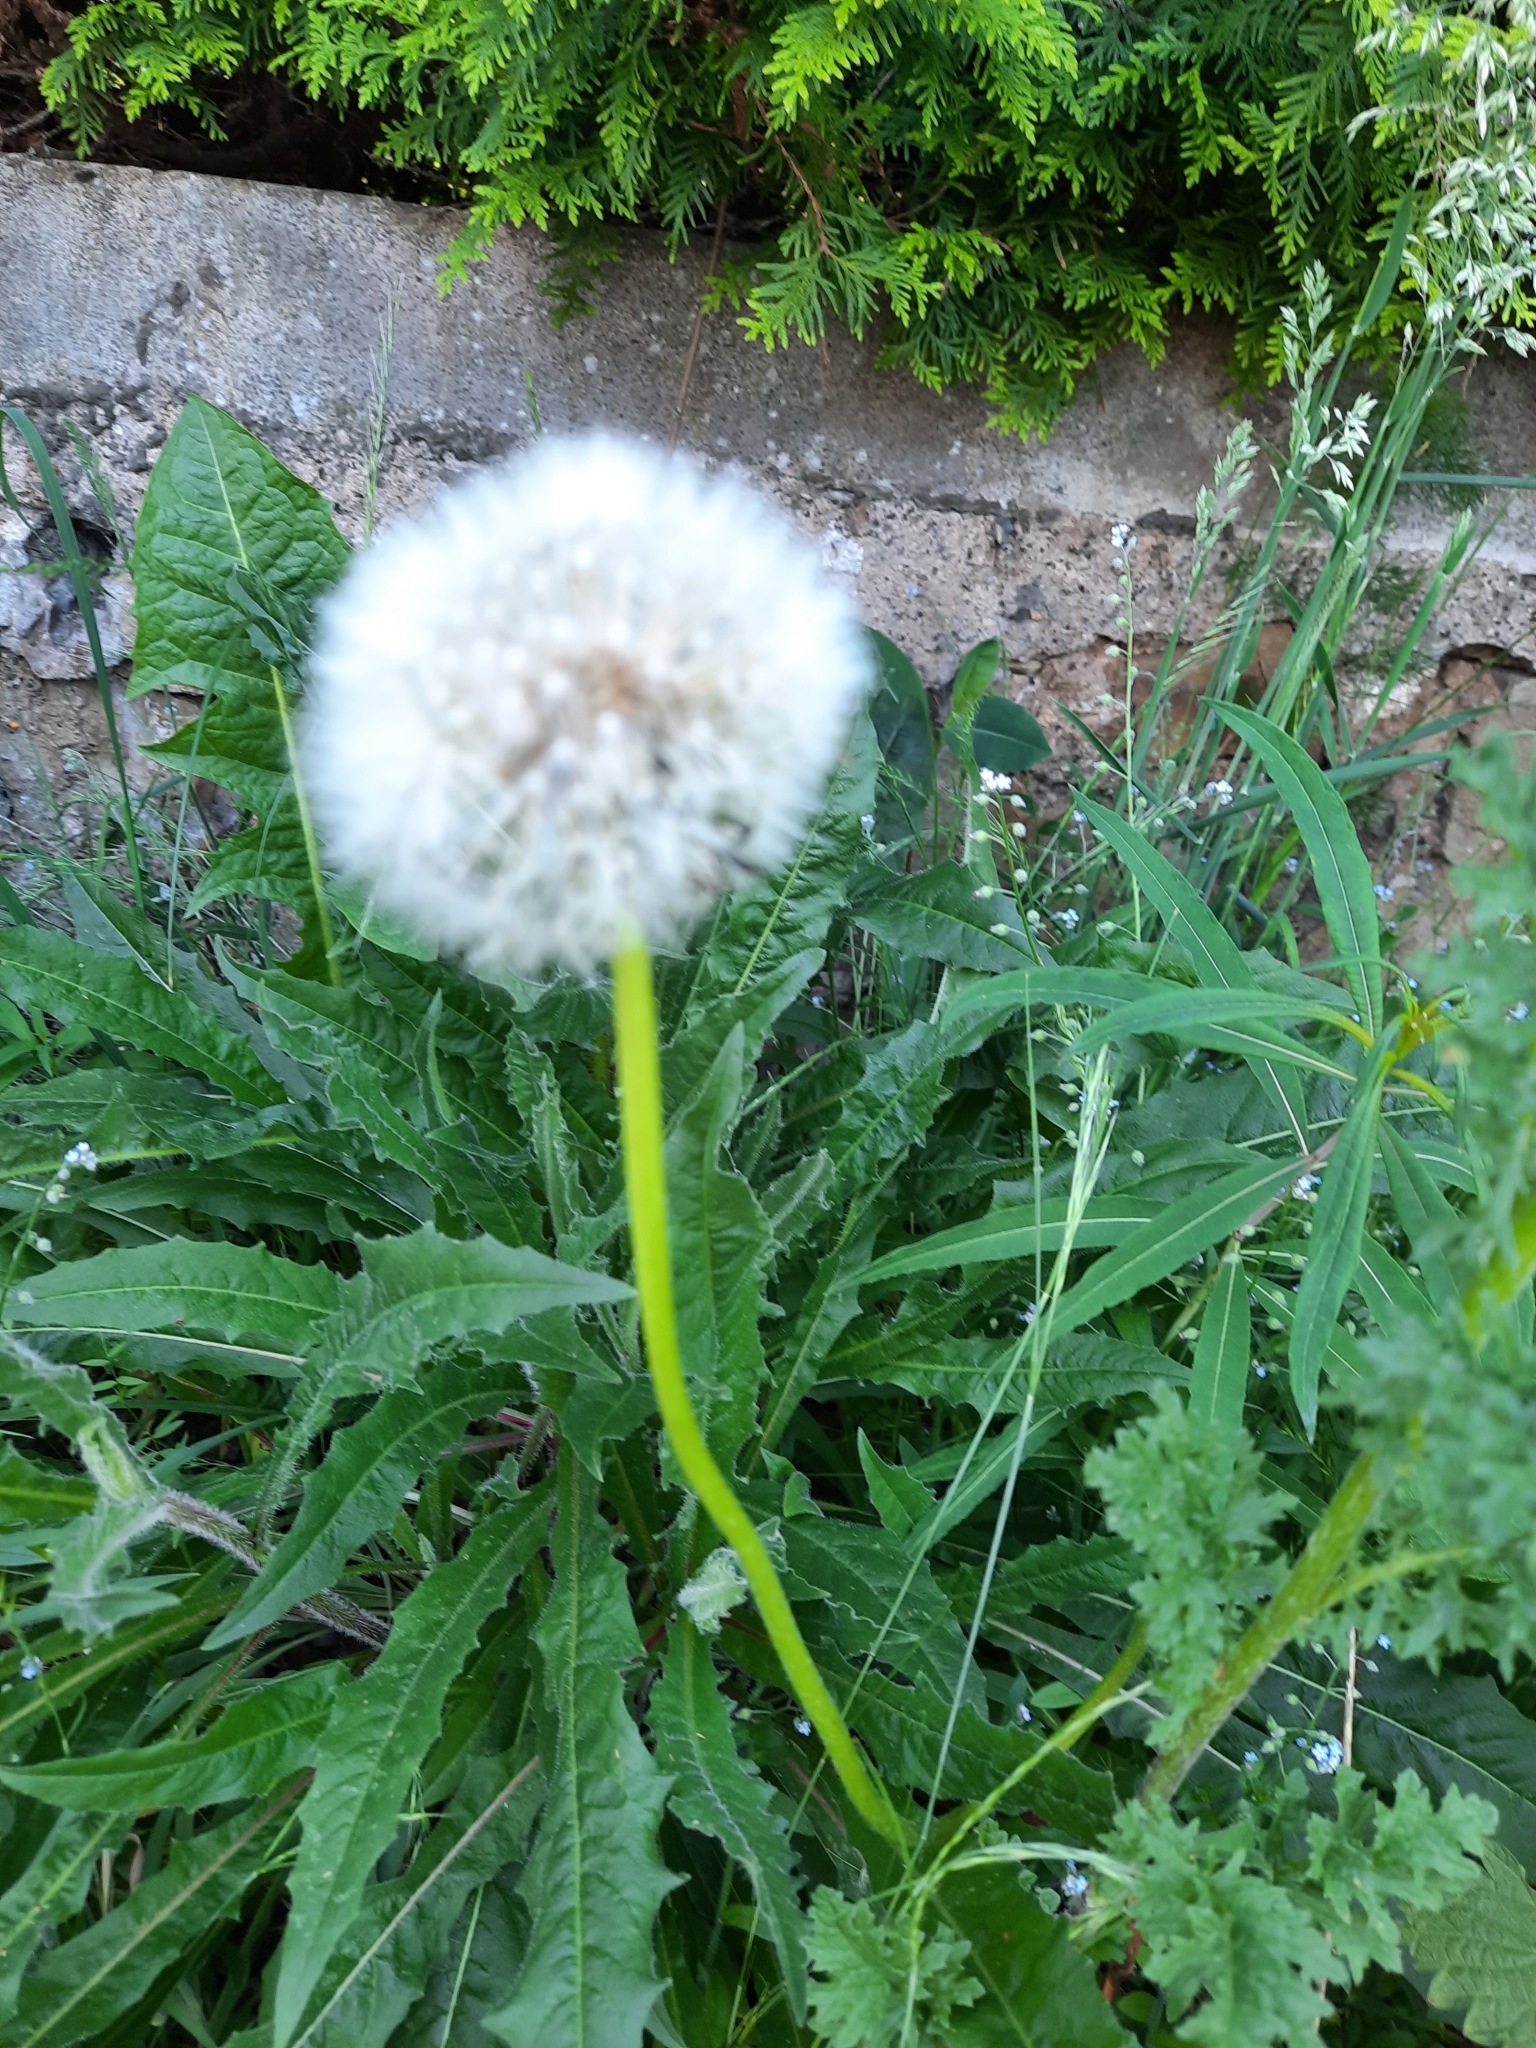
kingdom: Plantae
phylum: Tracheophyta
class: Magnoliopsida
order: Asterales
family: Asteraceae
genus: Taraxacum
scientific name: Taraxacum officinale
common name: Common dandelion
